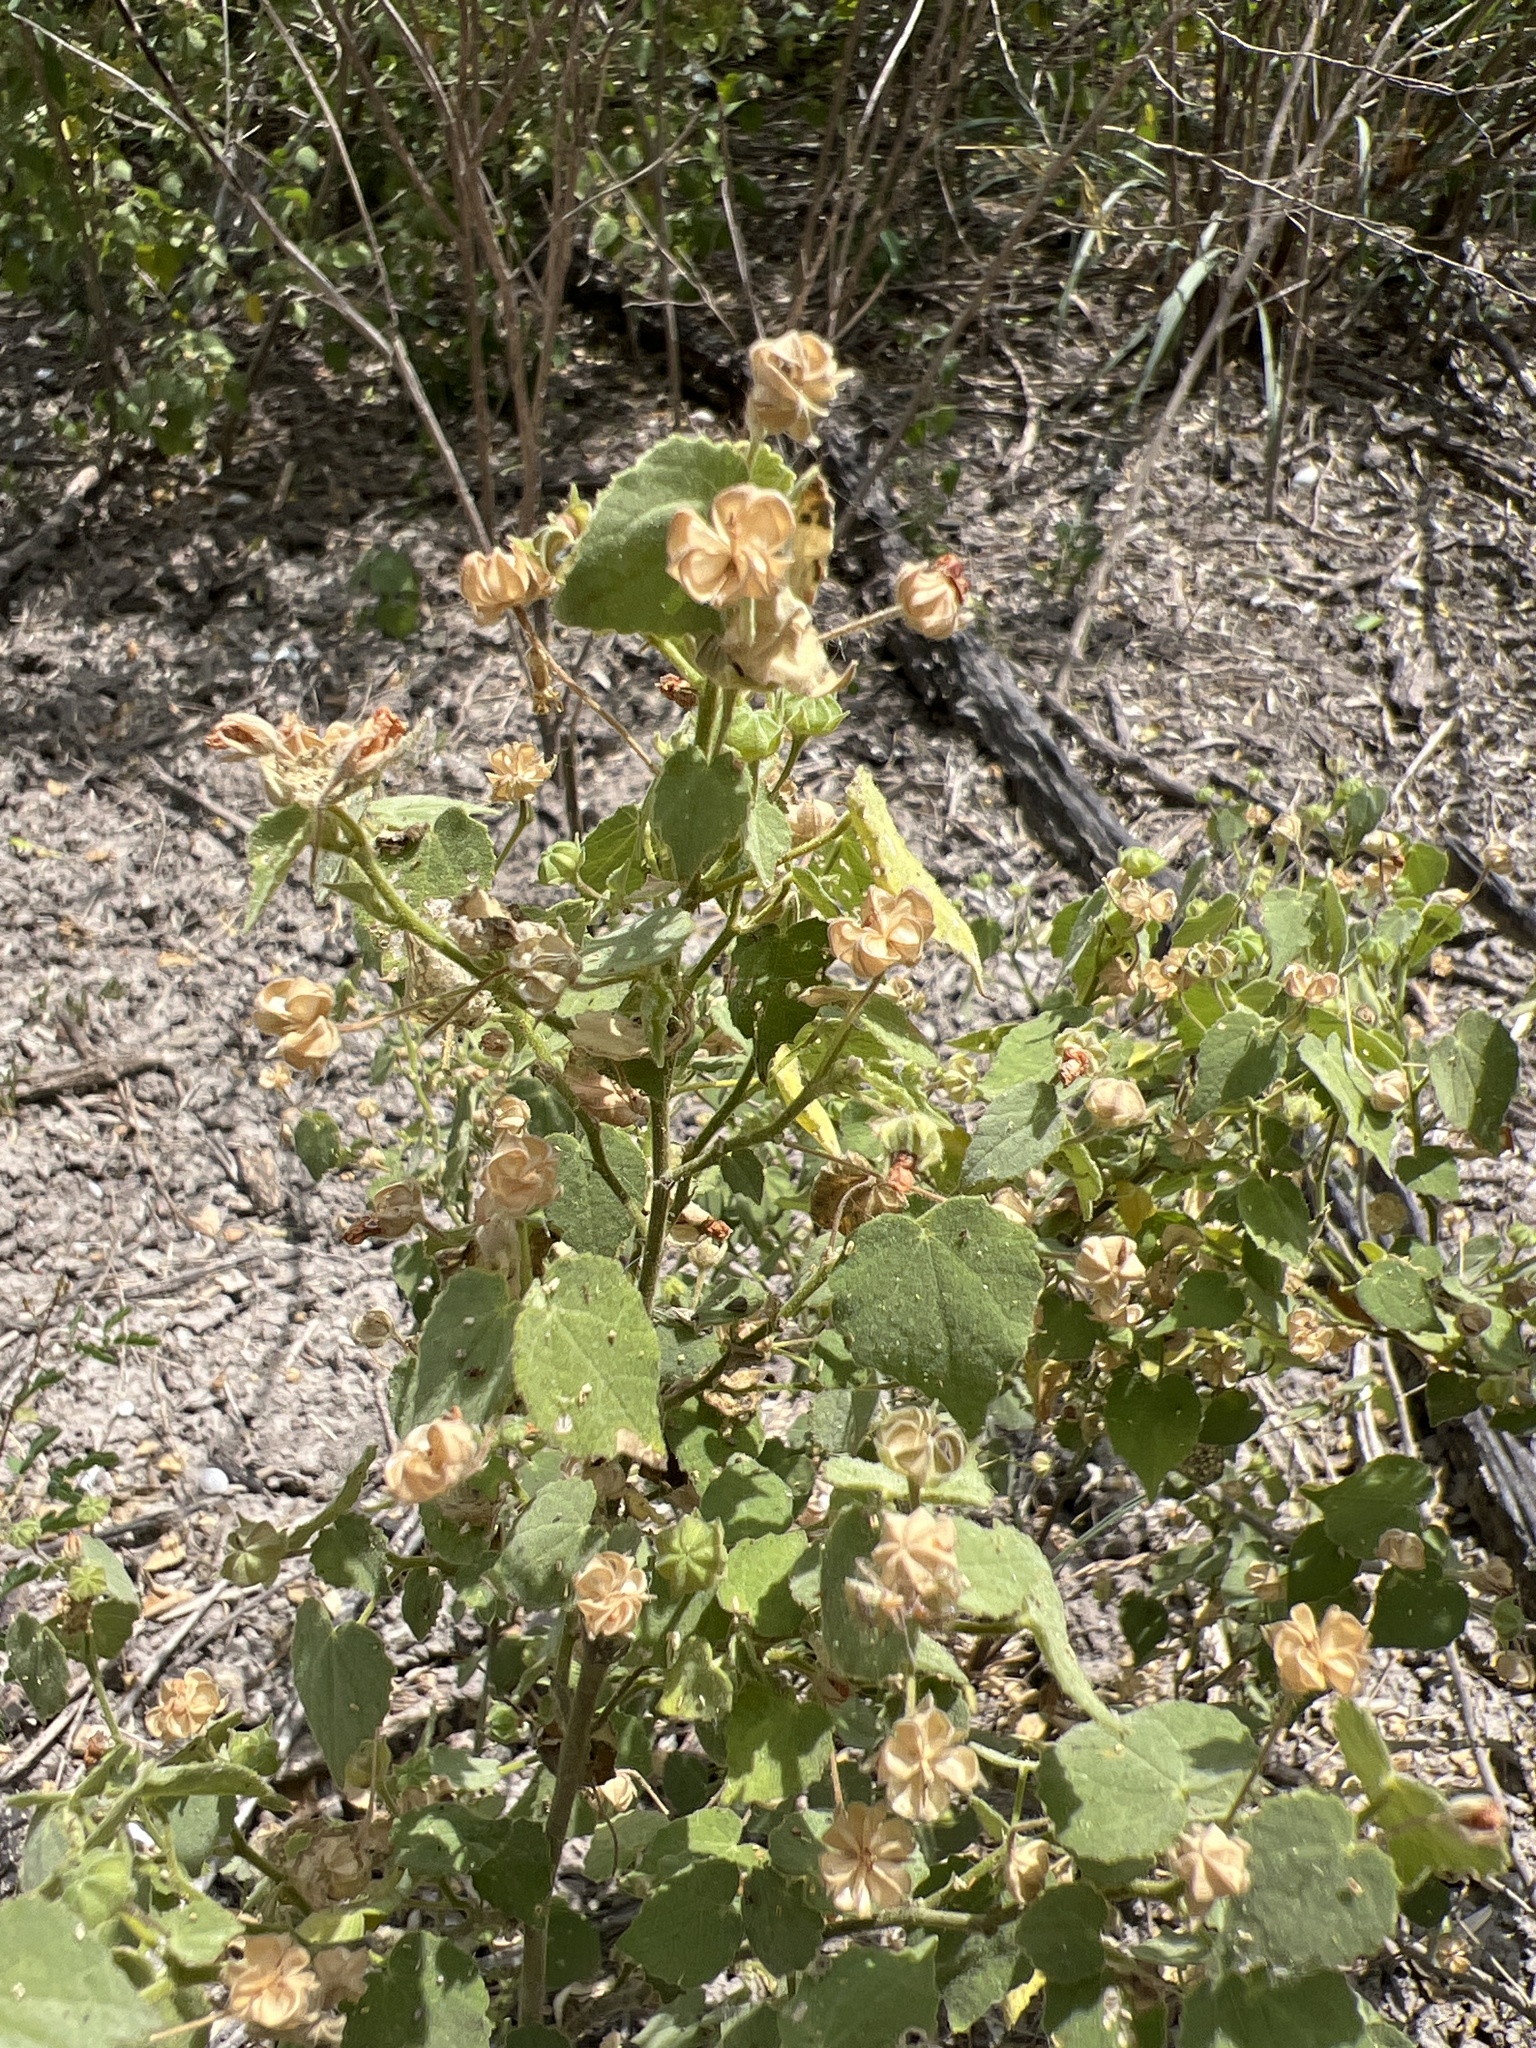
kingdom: Plantae
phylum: Tracheophyta
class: Magnoliopsida
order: Malvales
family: Malvaceae
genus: Abutilon
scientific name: Abutilon viscosum
